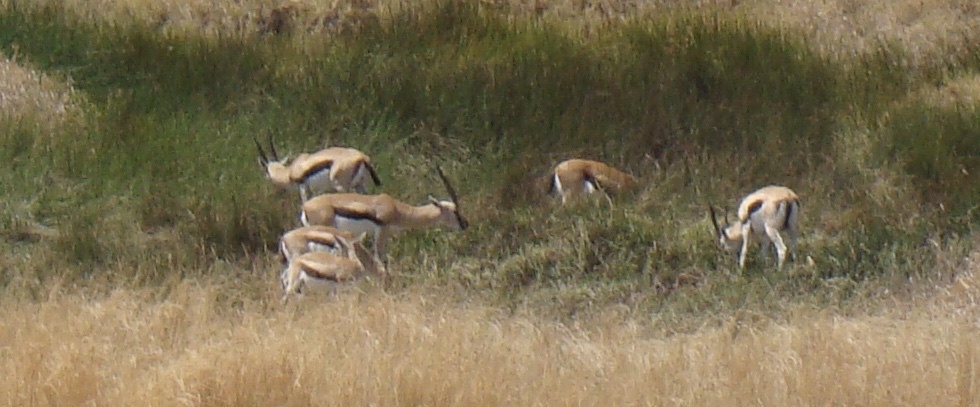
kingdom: Animalia
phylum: Chordata
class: Mammalia
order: Artiodactyla
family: Bovidae
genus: Eudorcas
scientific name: Eudorcas thomsonii
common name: Thomson's gazelle
